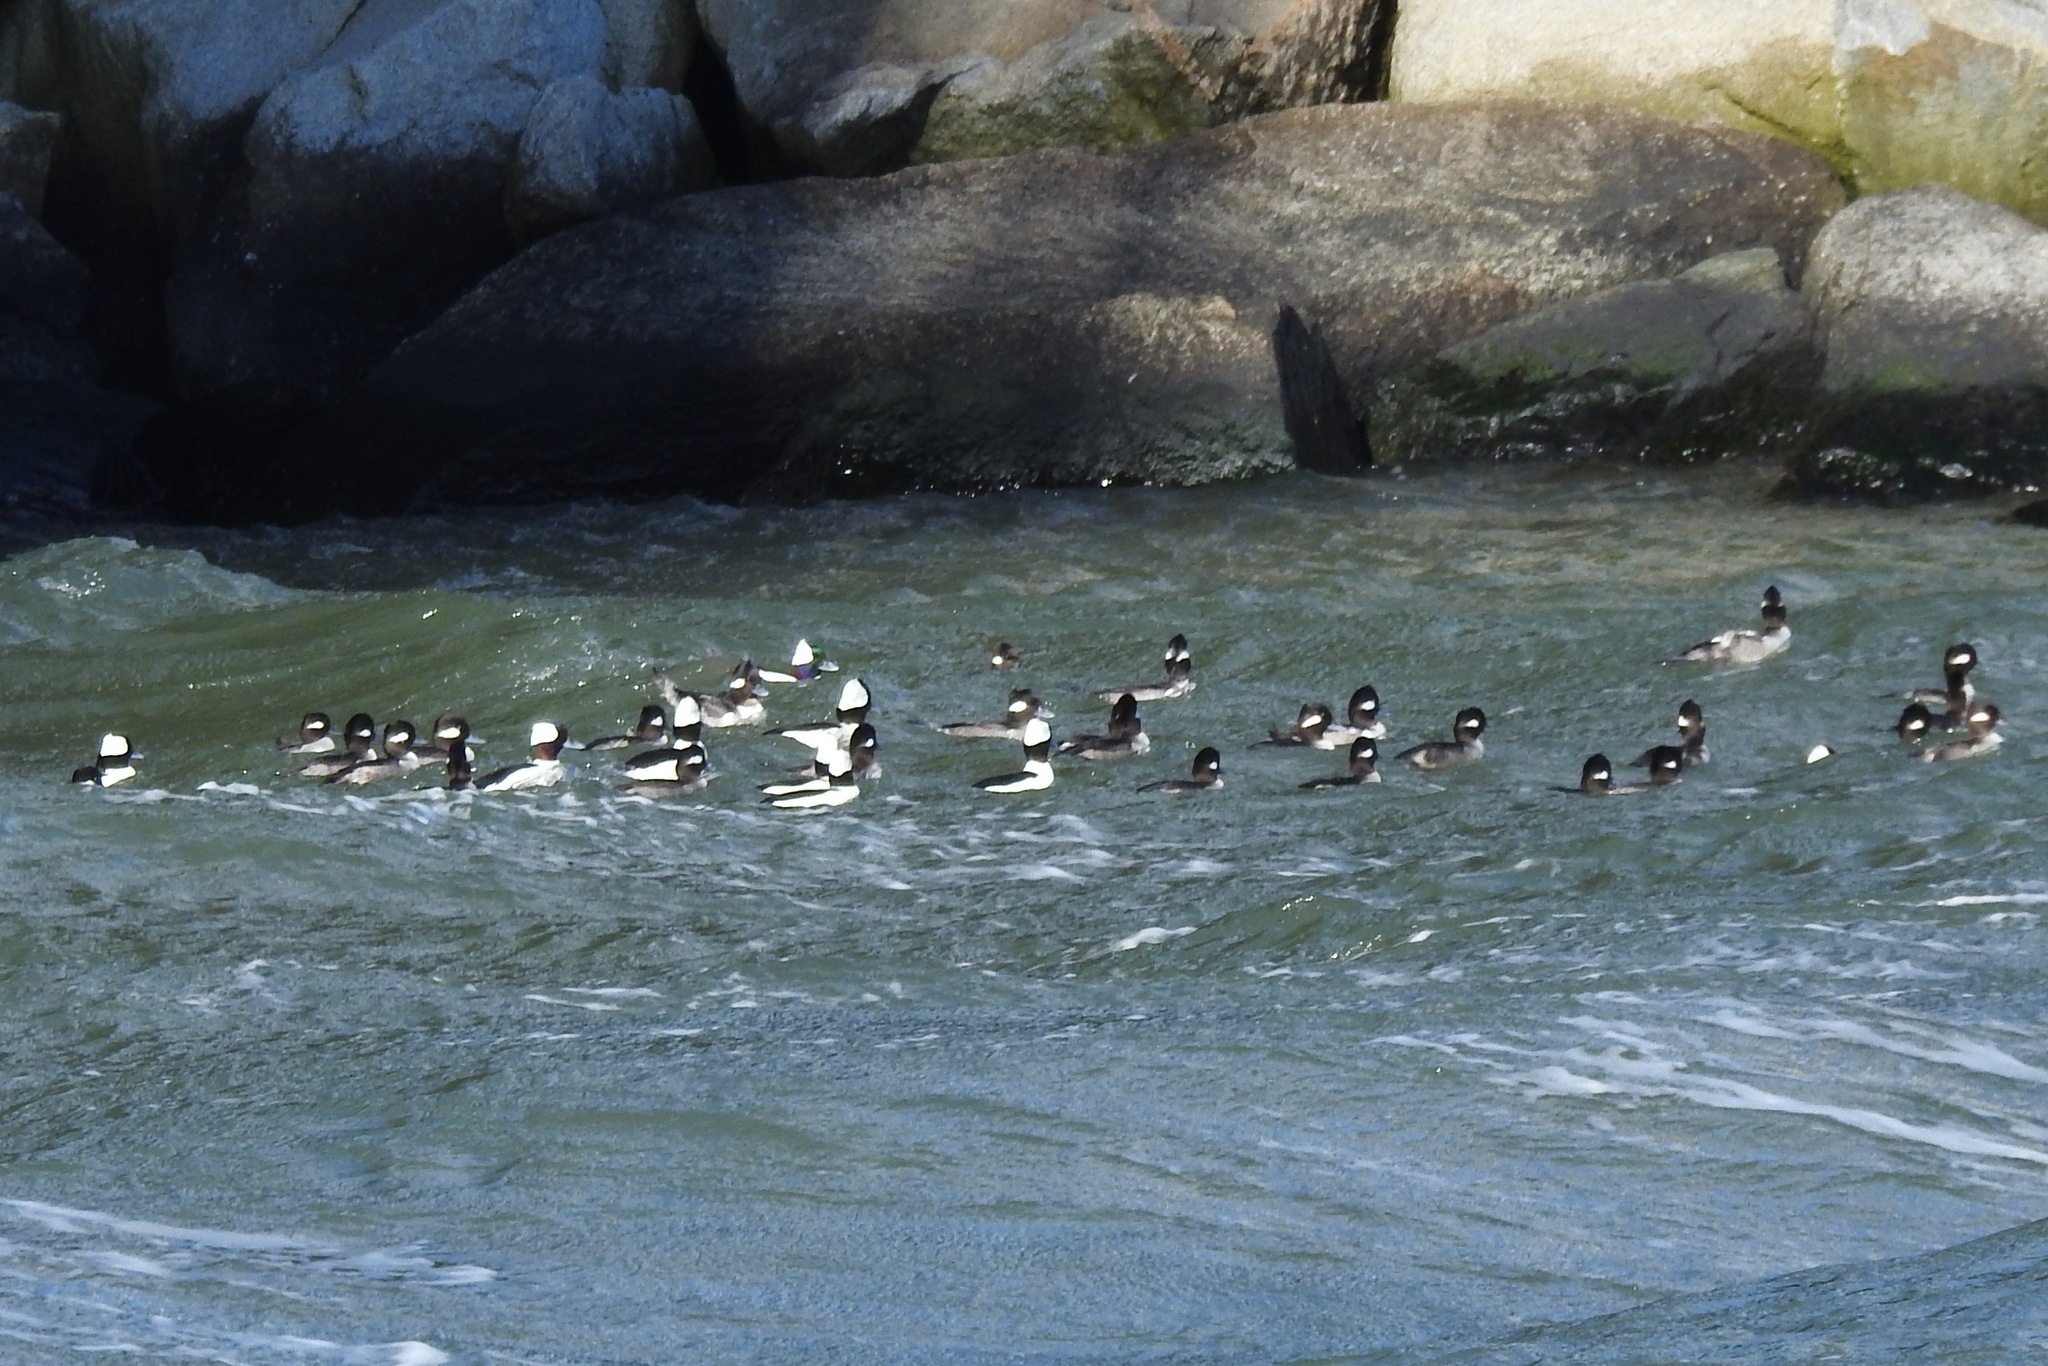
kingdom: Animalia
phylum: Chordata
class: Aves
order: Anseriformes
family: Anatidae
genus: Bucephala
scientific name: Bucephala albeola
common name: Bufflehead
